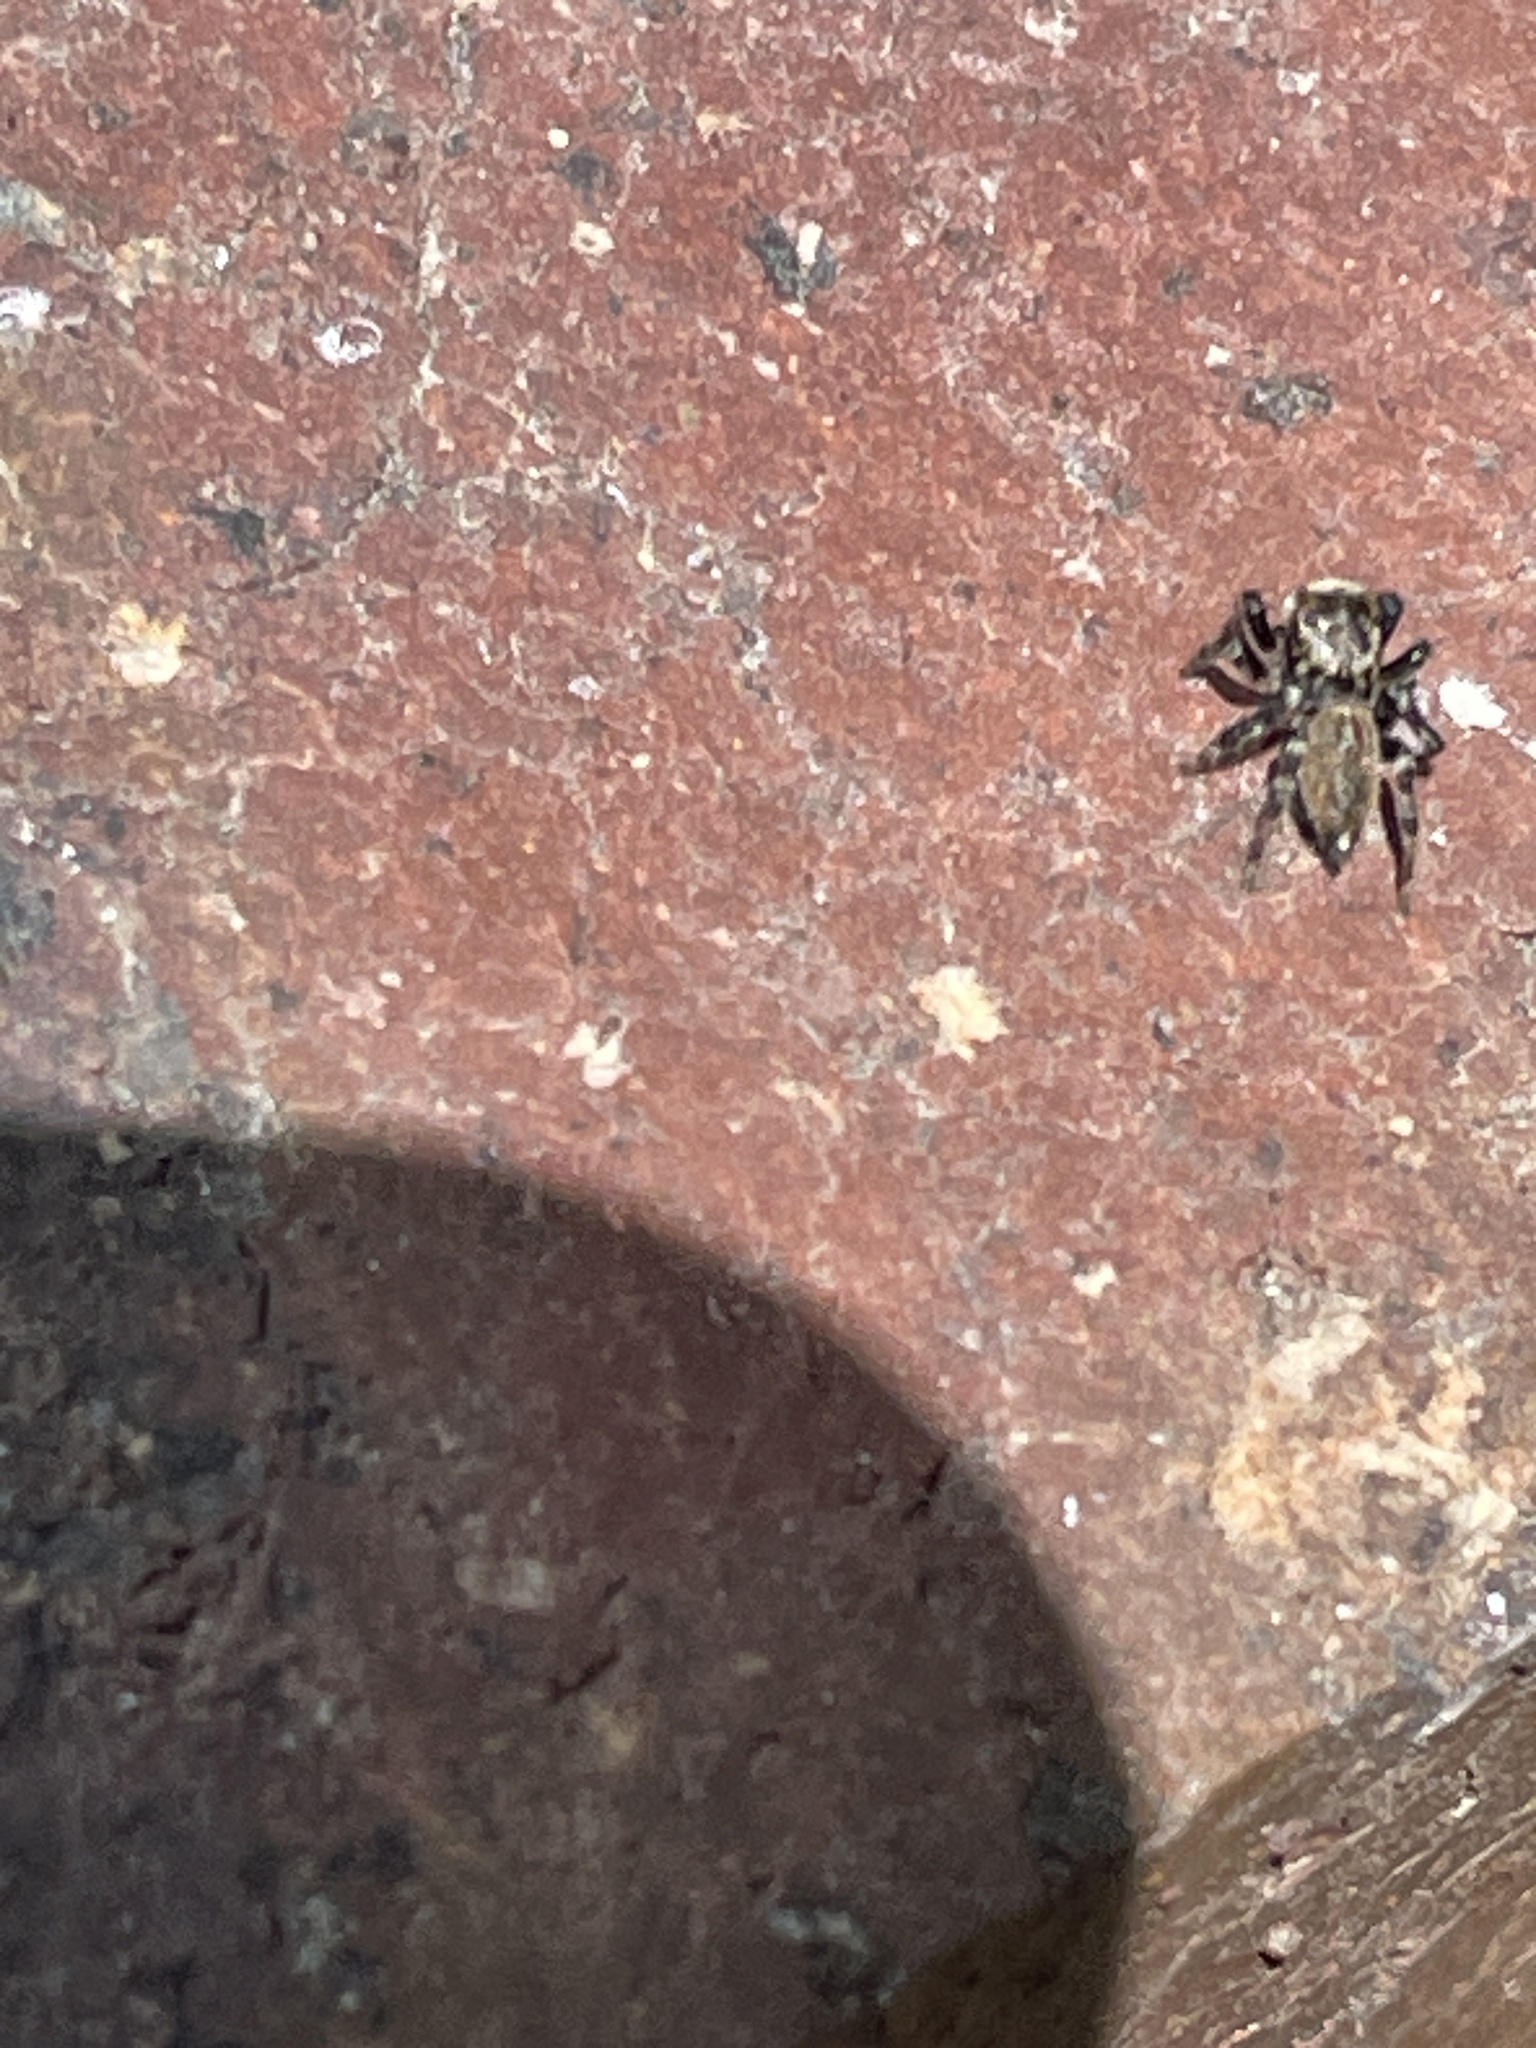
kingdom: Animalia
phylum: Arthropoda
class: Arachnida
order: Araneae
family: Salticidae
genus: Maratus
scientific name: Maratus griseus
